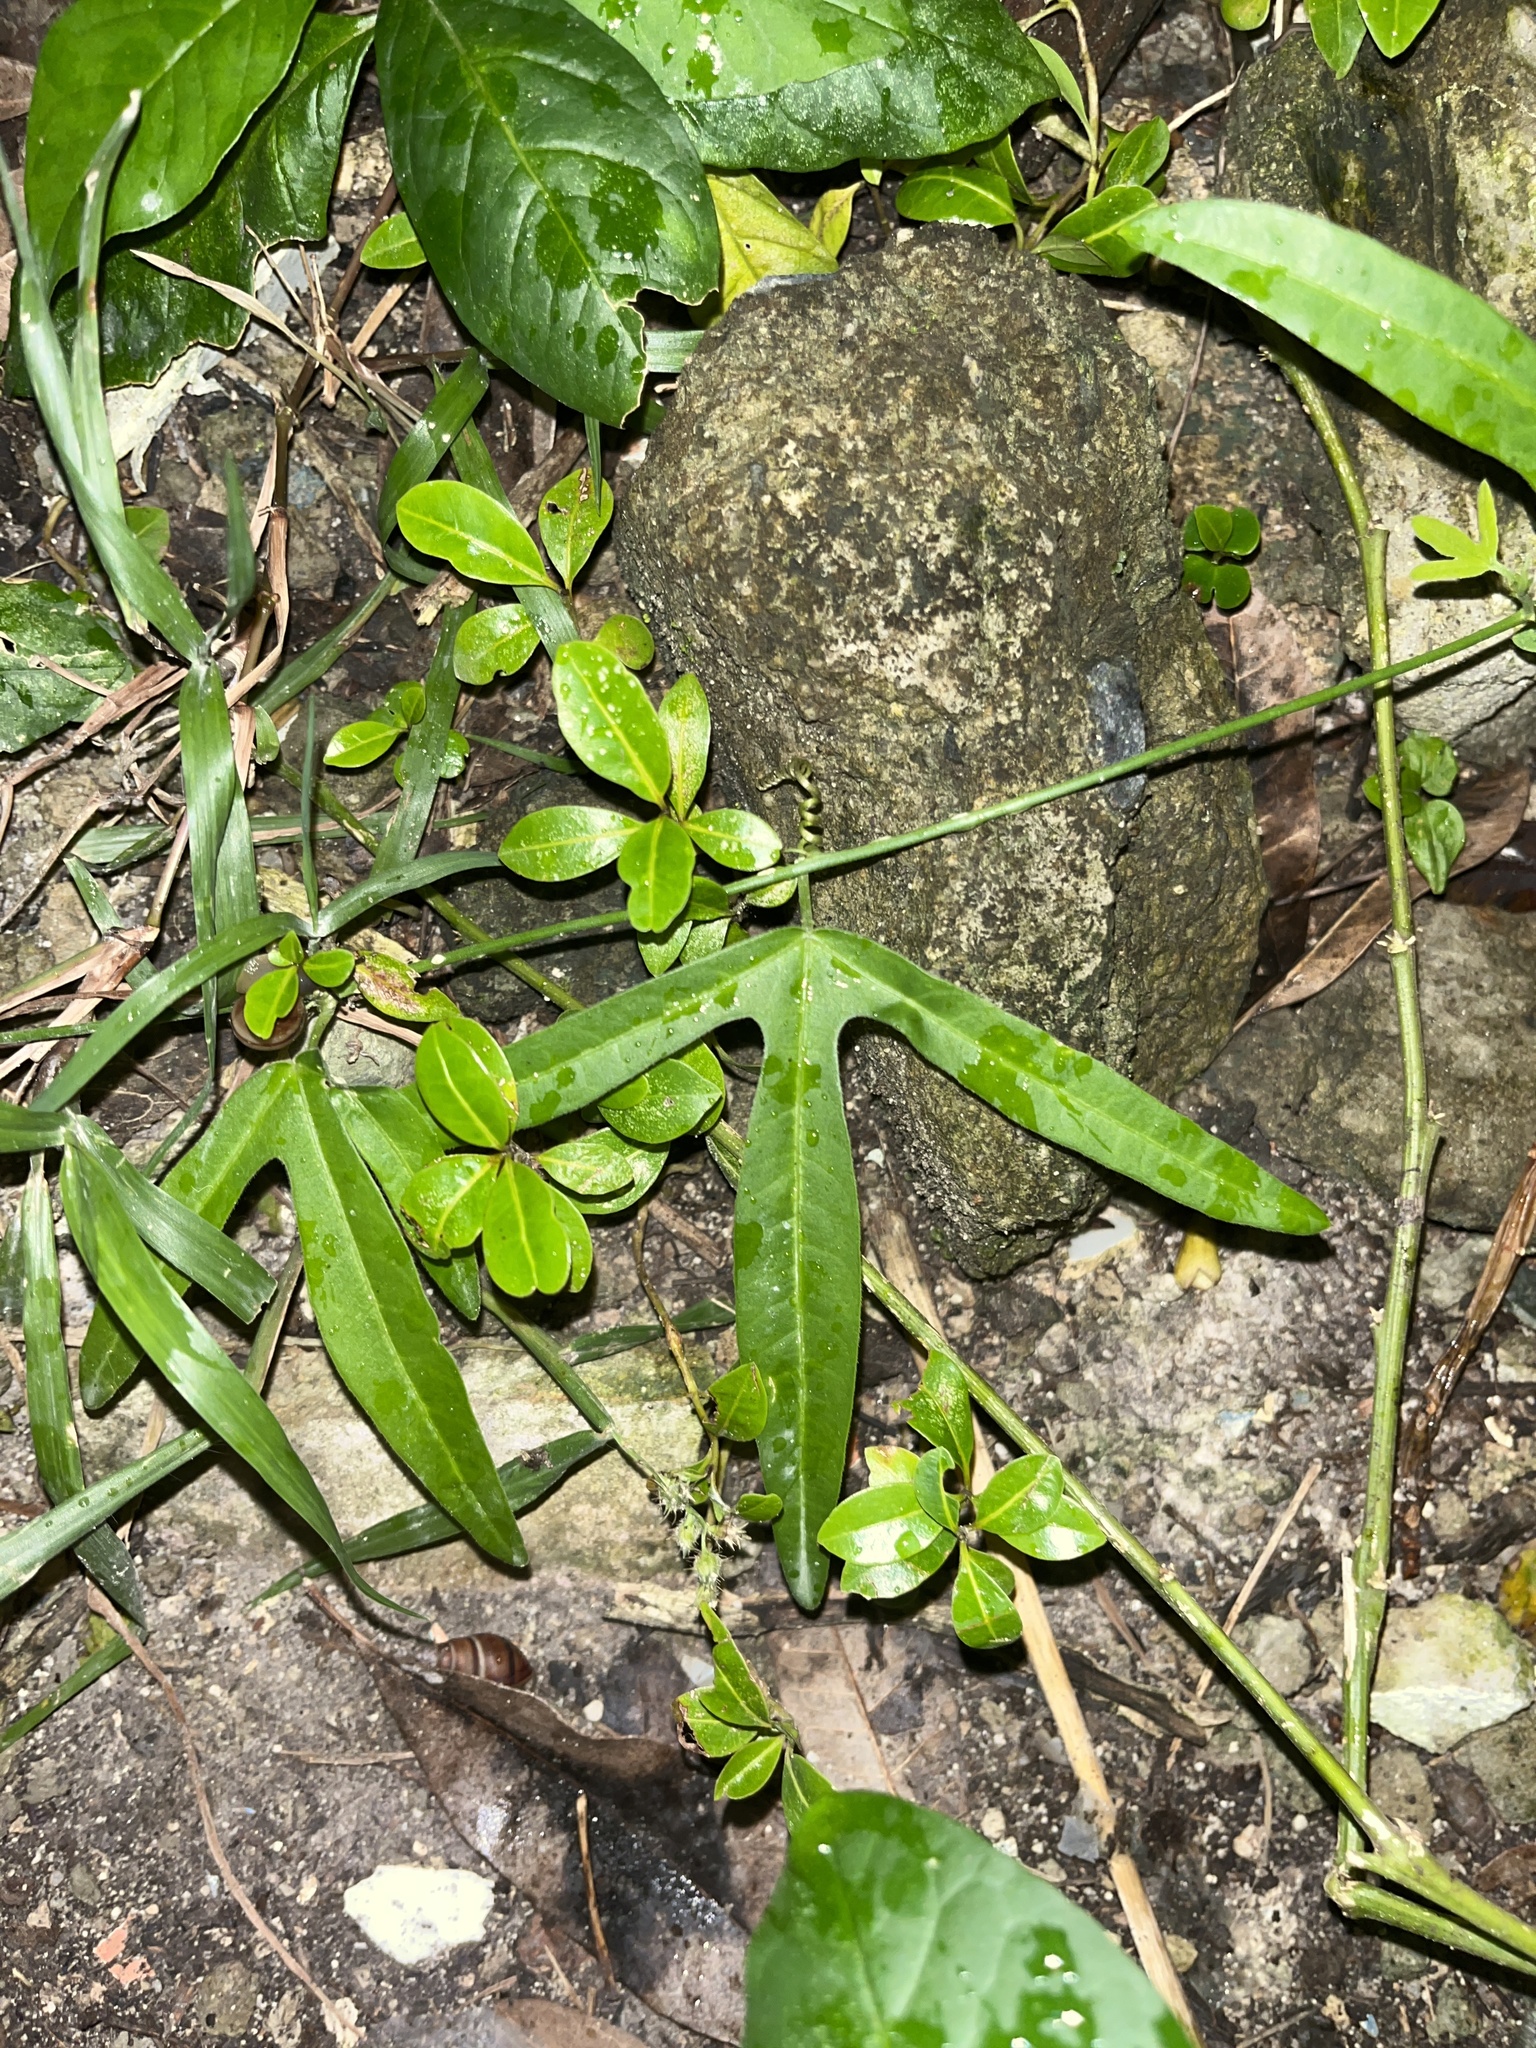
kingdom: Plantae
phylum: Tracheophyta
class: Magnoliopsida
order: Malpighiales
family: Passifloraceae
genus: Passiflora
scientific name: Passiflora suberosa
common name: Wild passionfruit
